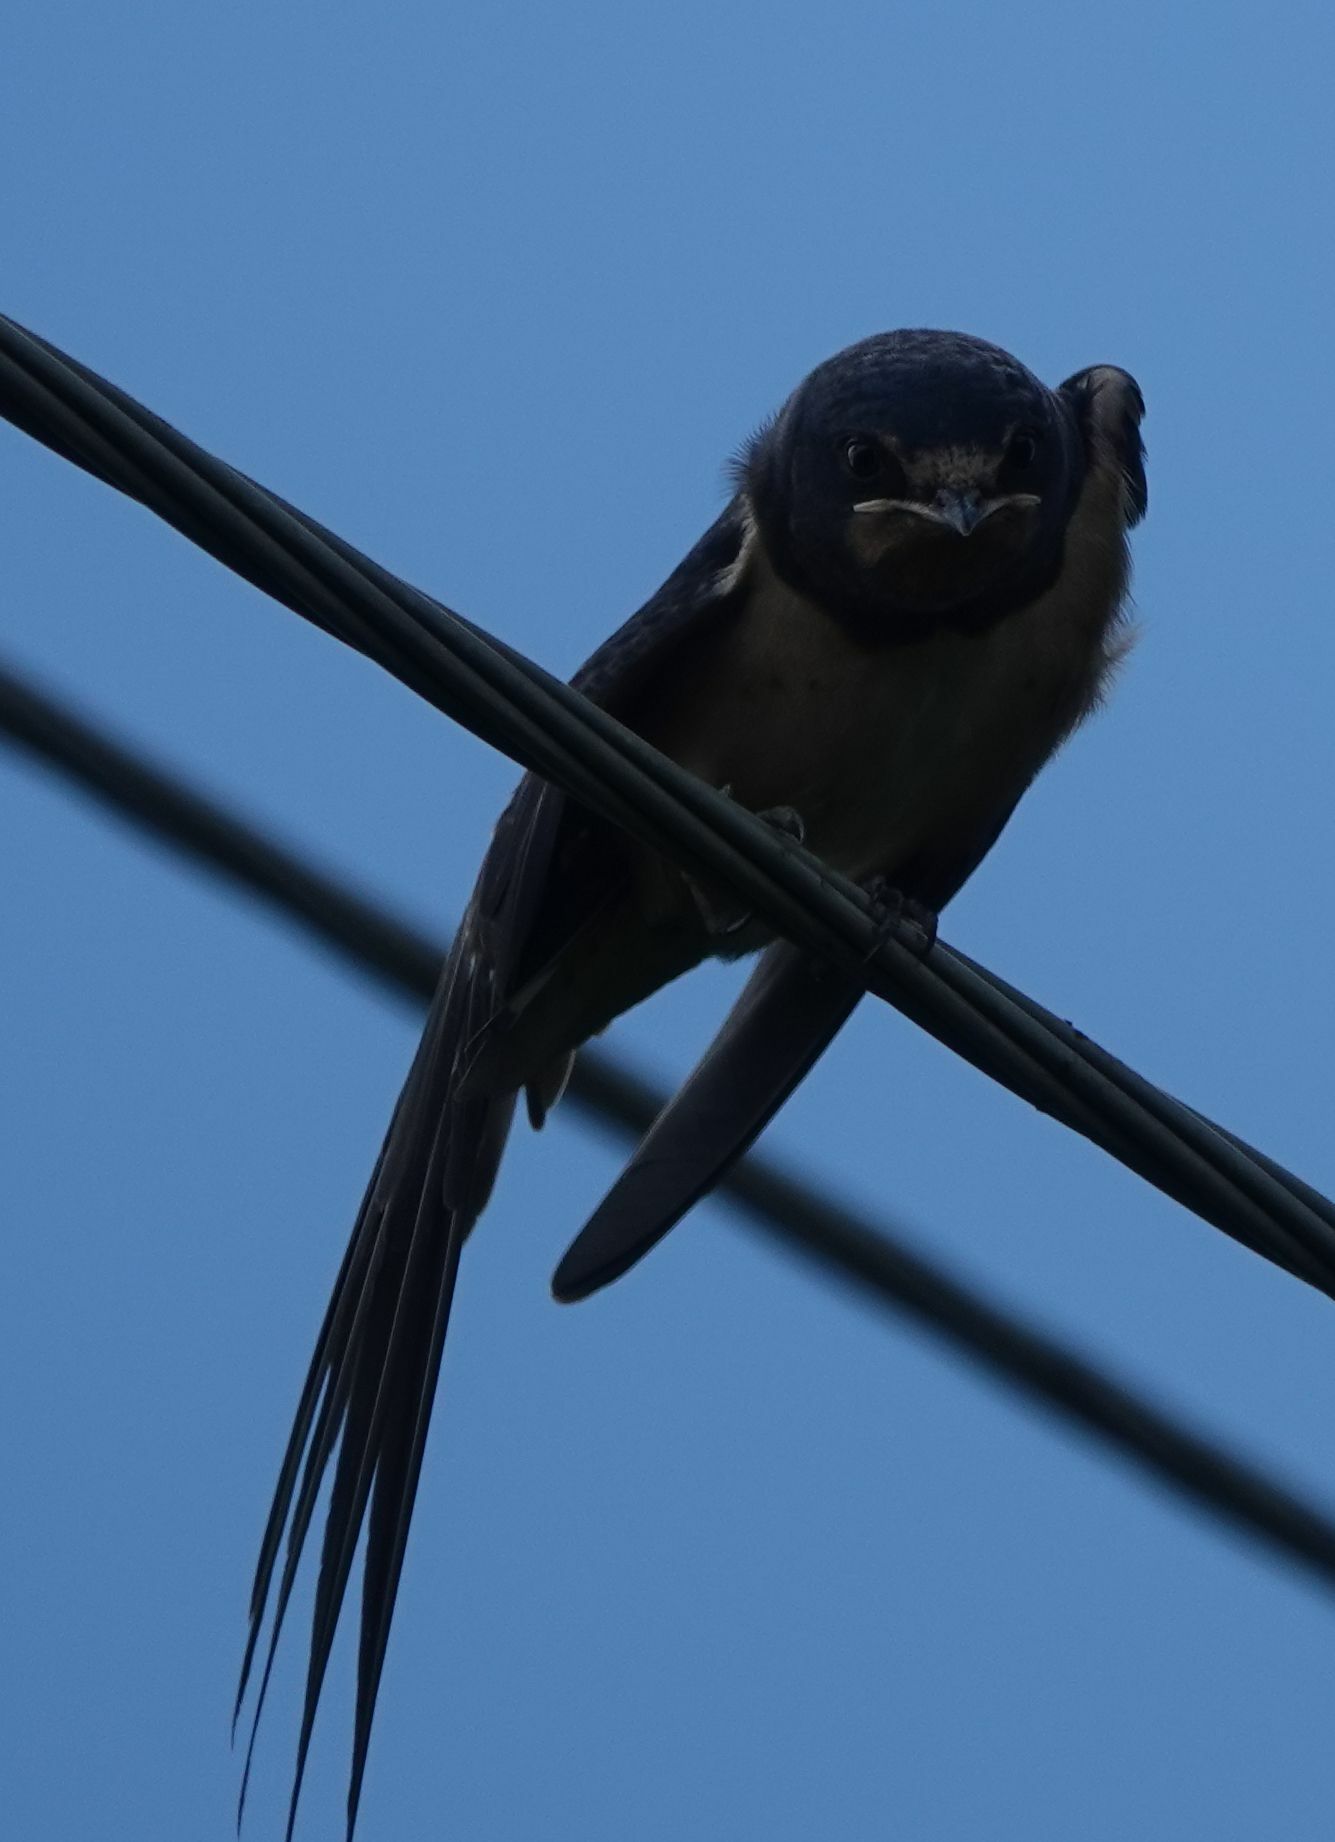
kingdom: Animalia
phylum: Chordata
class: Aves
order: Passeriformes
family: Hirundinidae
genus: Hirundo
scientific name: Hirundo rustica
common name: Barn swallow
